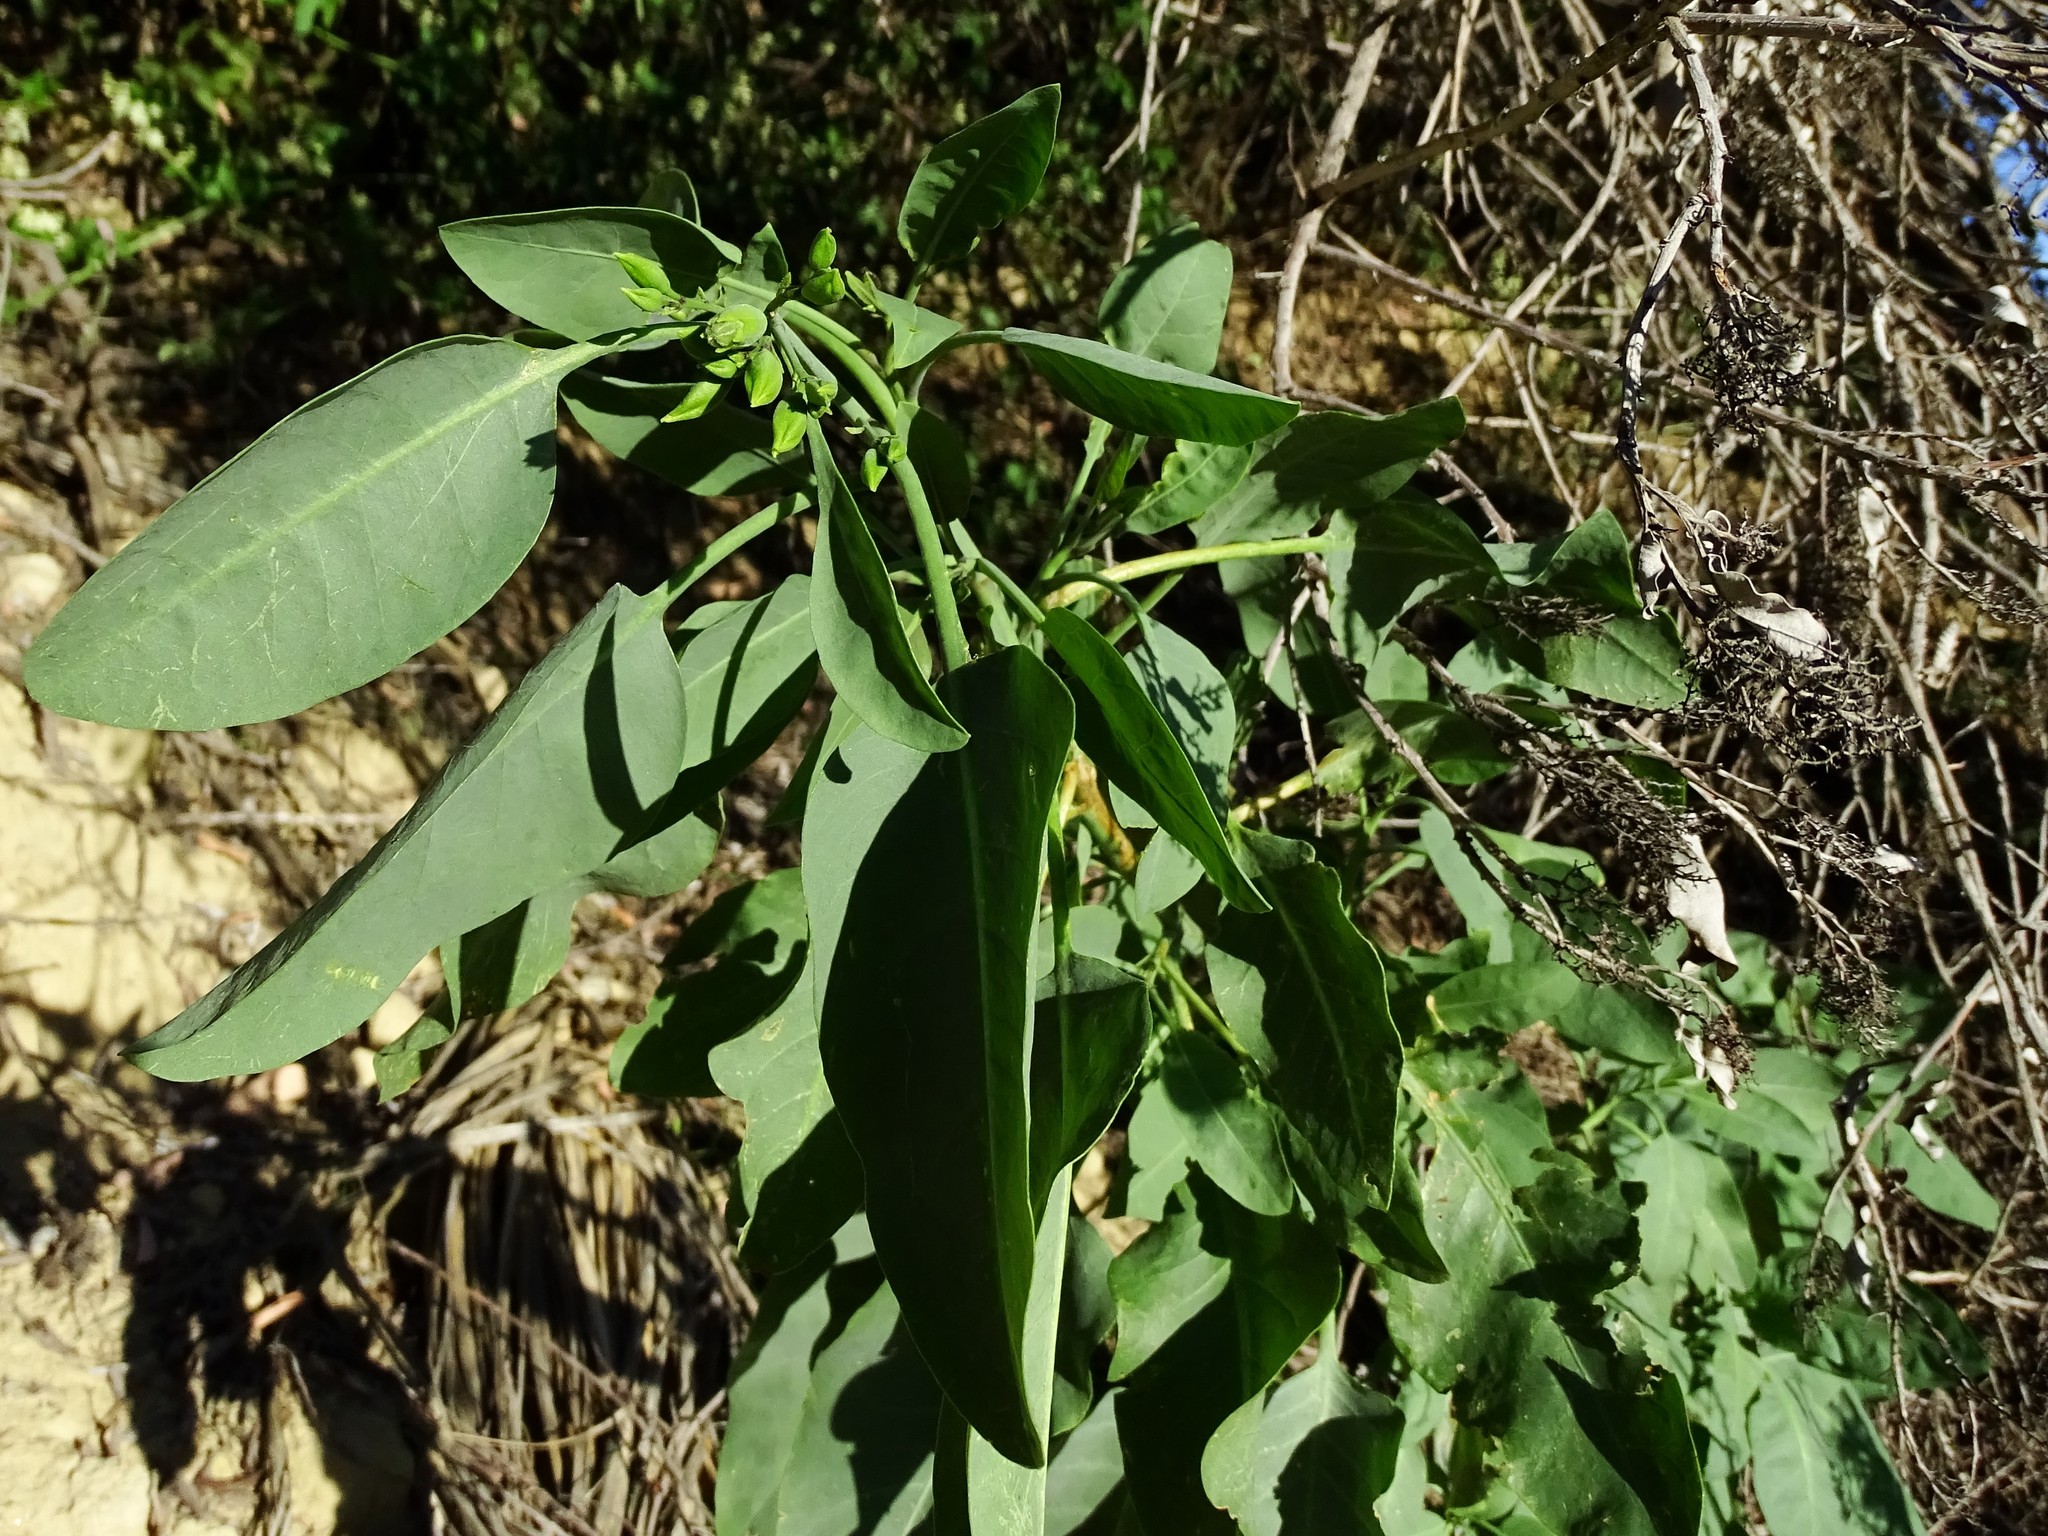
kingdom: Plantae
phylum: Tracheophyta
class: Magnoliopsida
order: Solanales
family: Solanaceae
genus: Nicotiana
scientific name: Nicotiana glauca
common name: Tree tobacco
